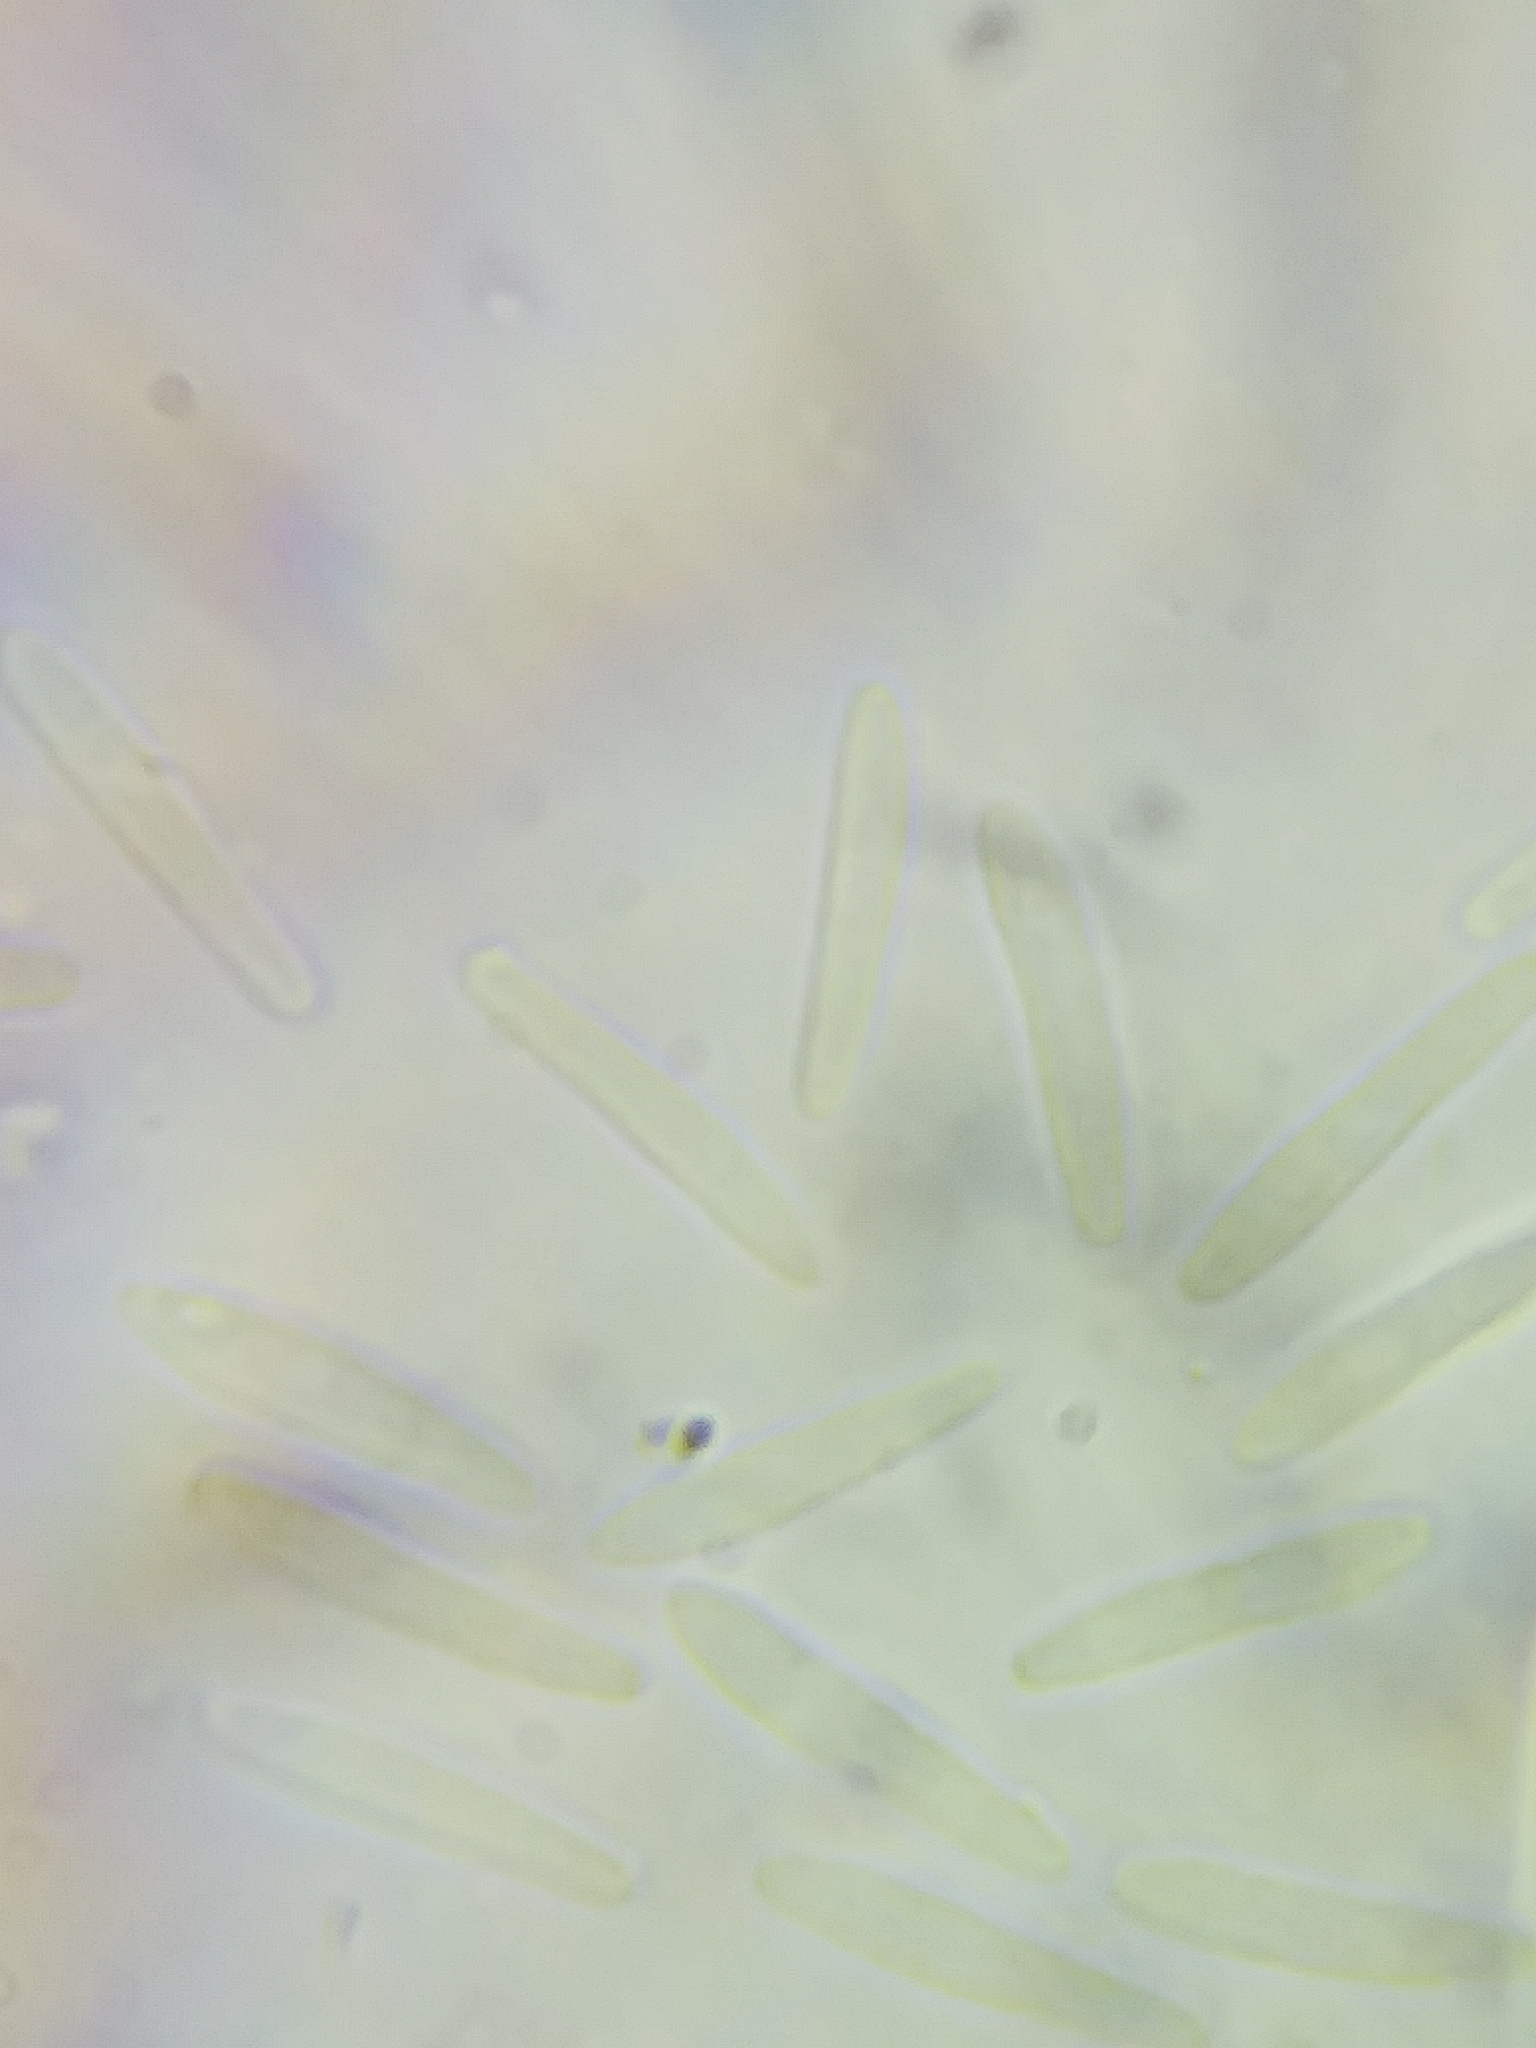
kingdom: Fungi
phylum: Ascomycota
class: Leotiomycetes
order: Helotiales
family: Sclerotiniaceae
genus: Mitrula
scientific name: Mitrula elegans
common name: Swamp beacon
